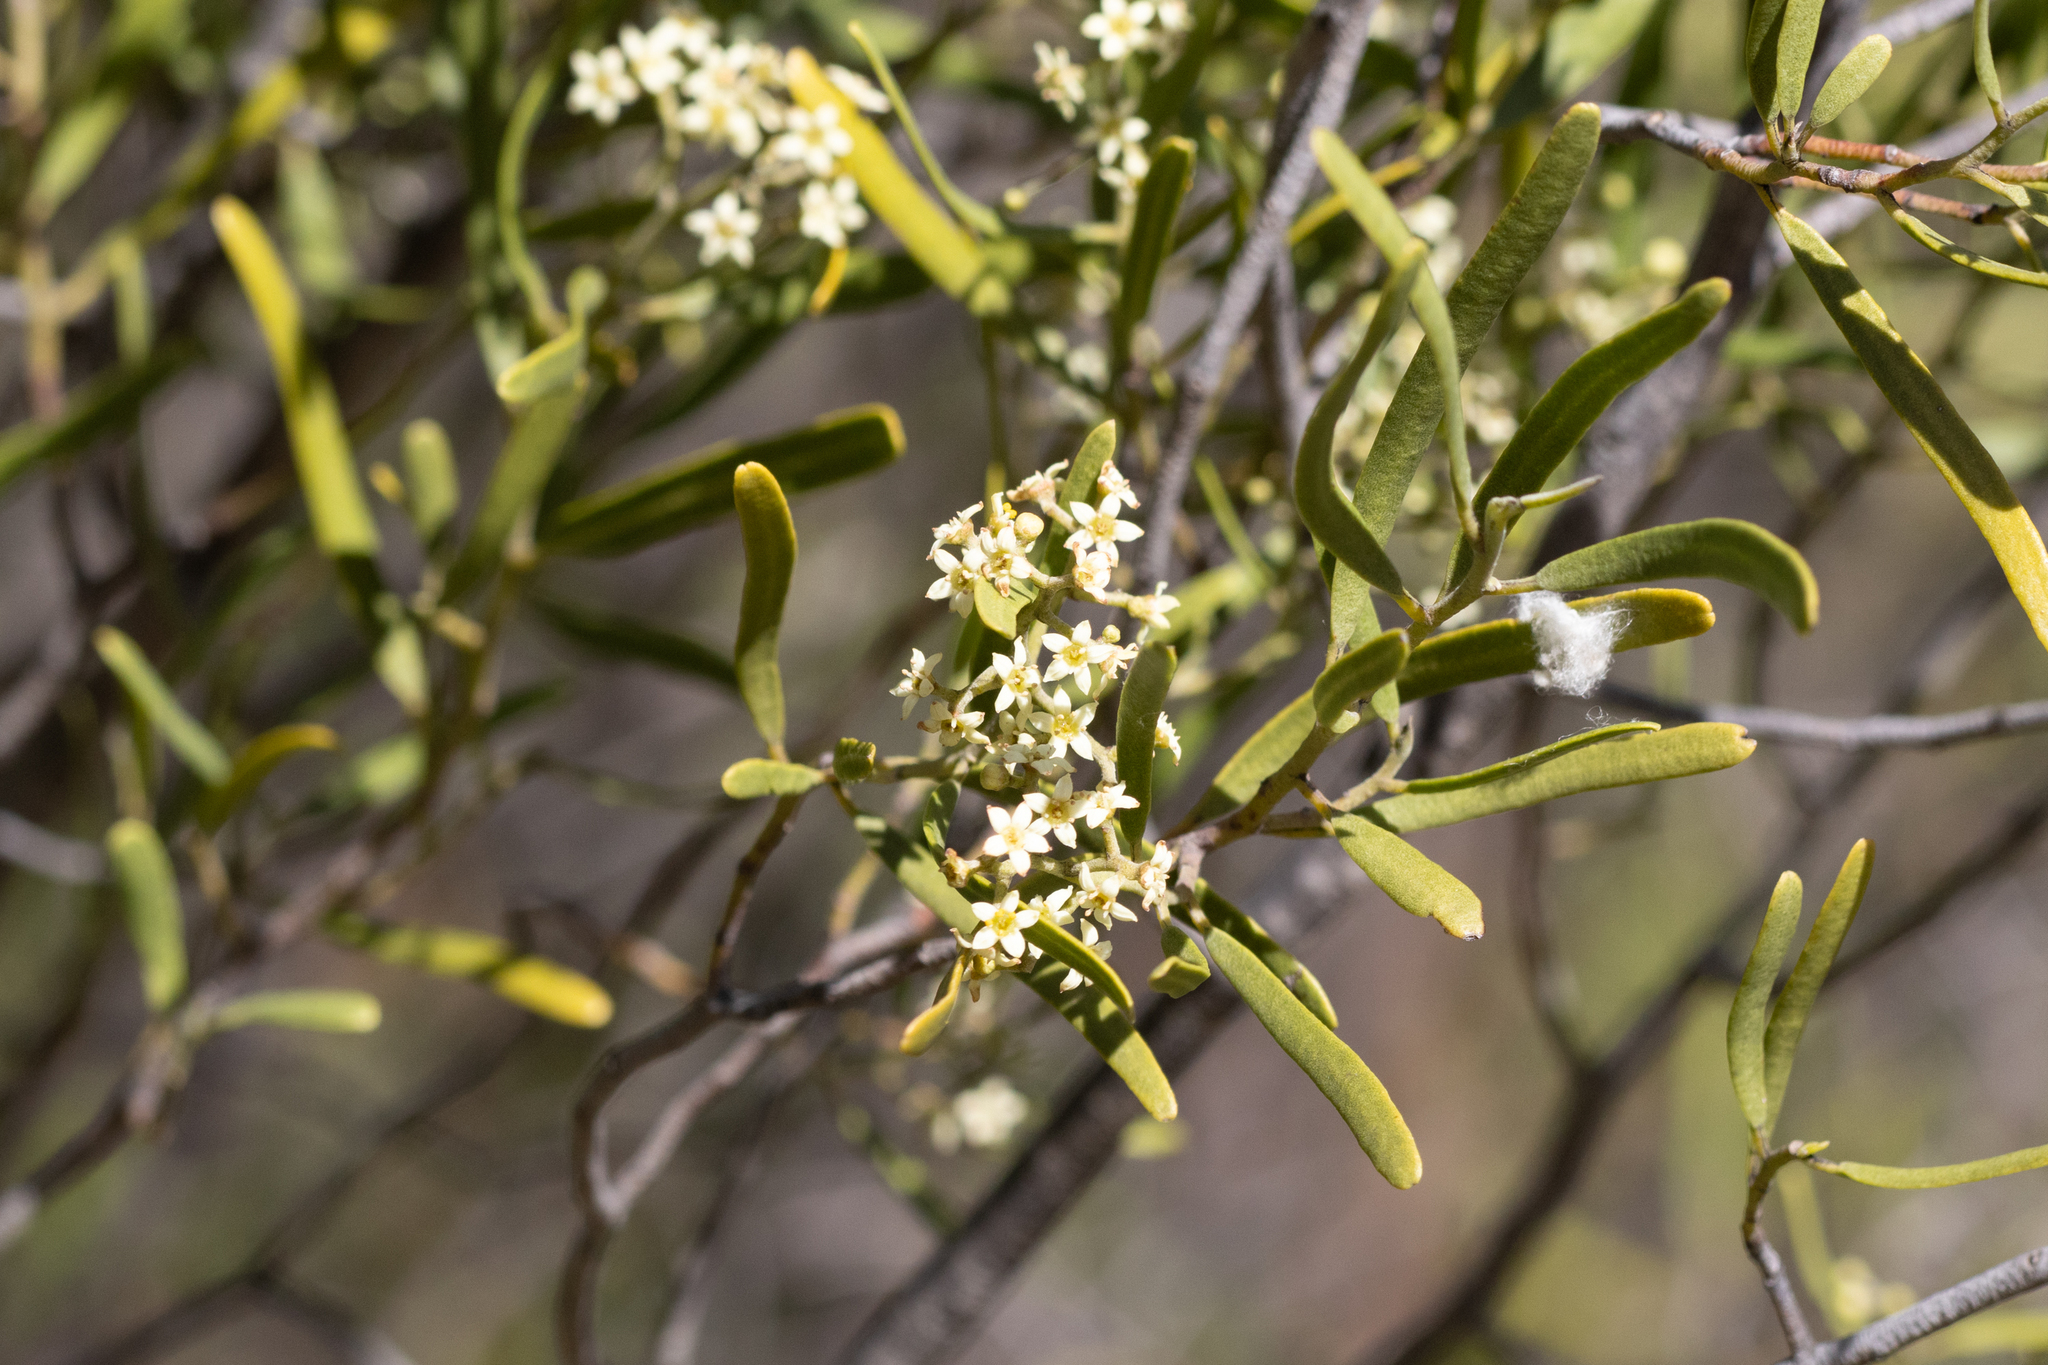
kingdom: Plantae
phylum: Tracheophyta
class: Magnoliopsida
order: Sapindales
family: Rutaceae
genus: Geijera
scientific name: Geijera linearifolia
